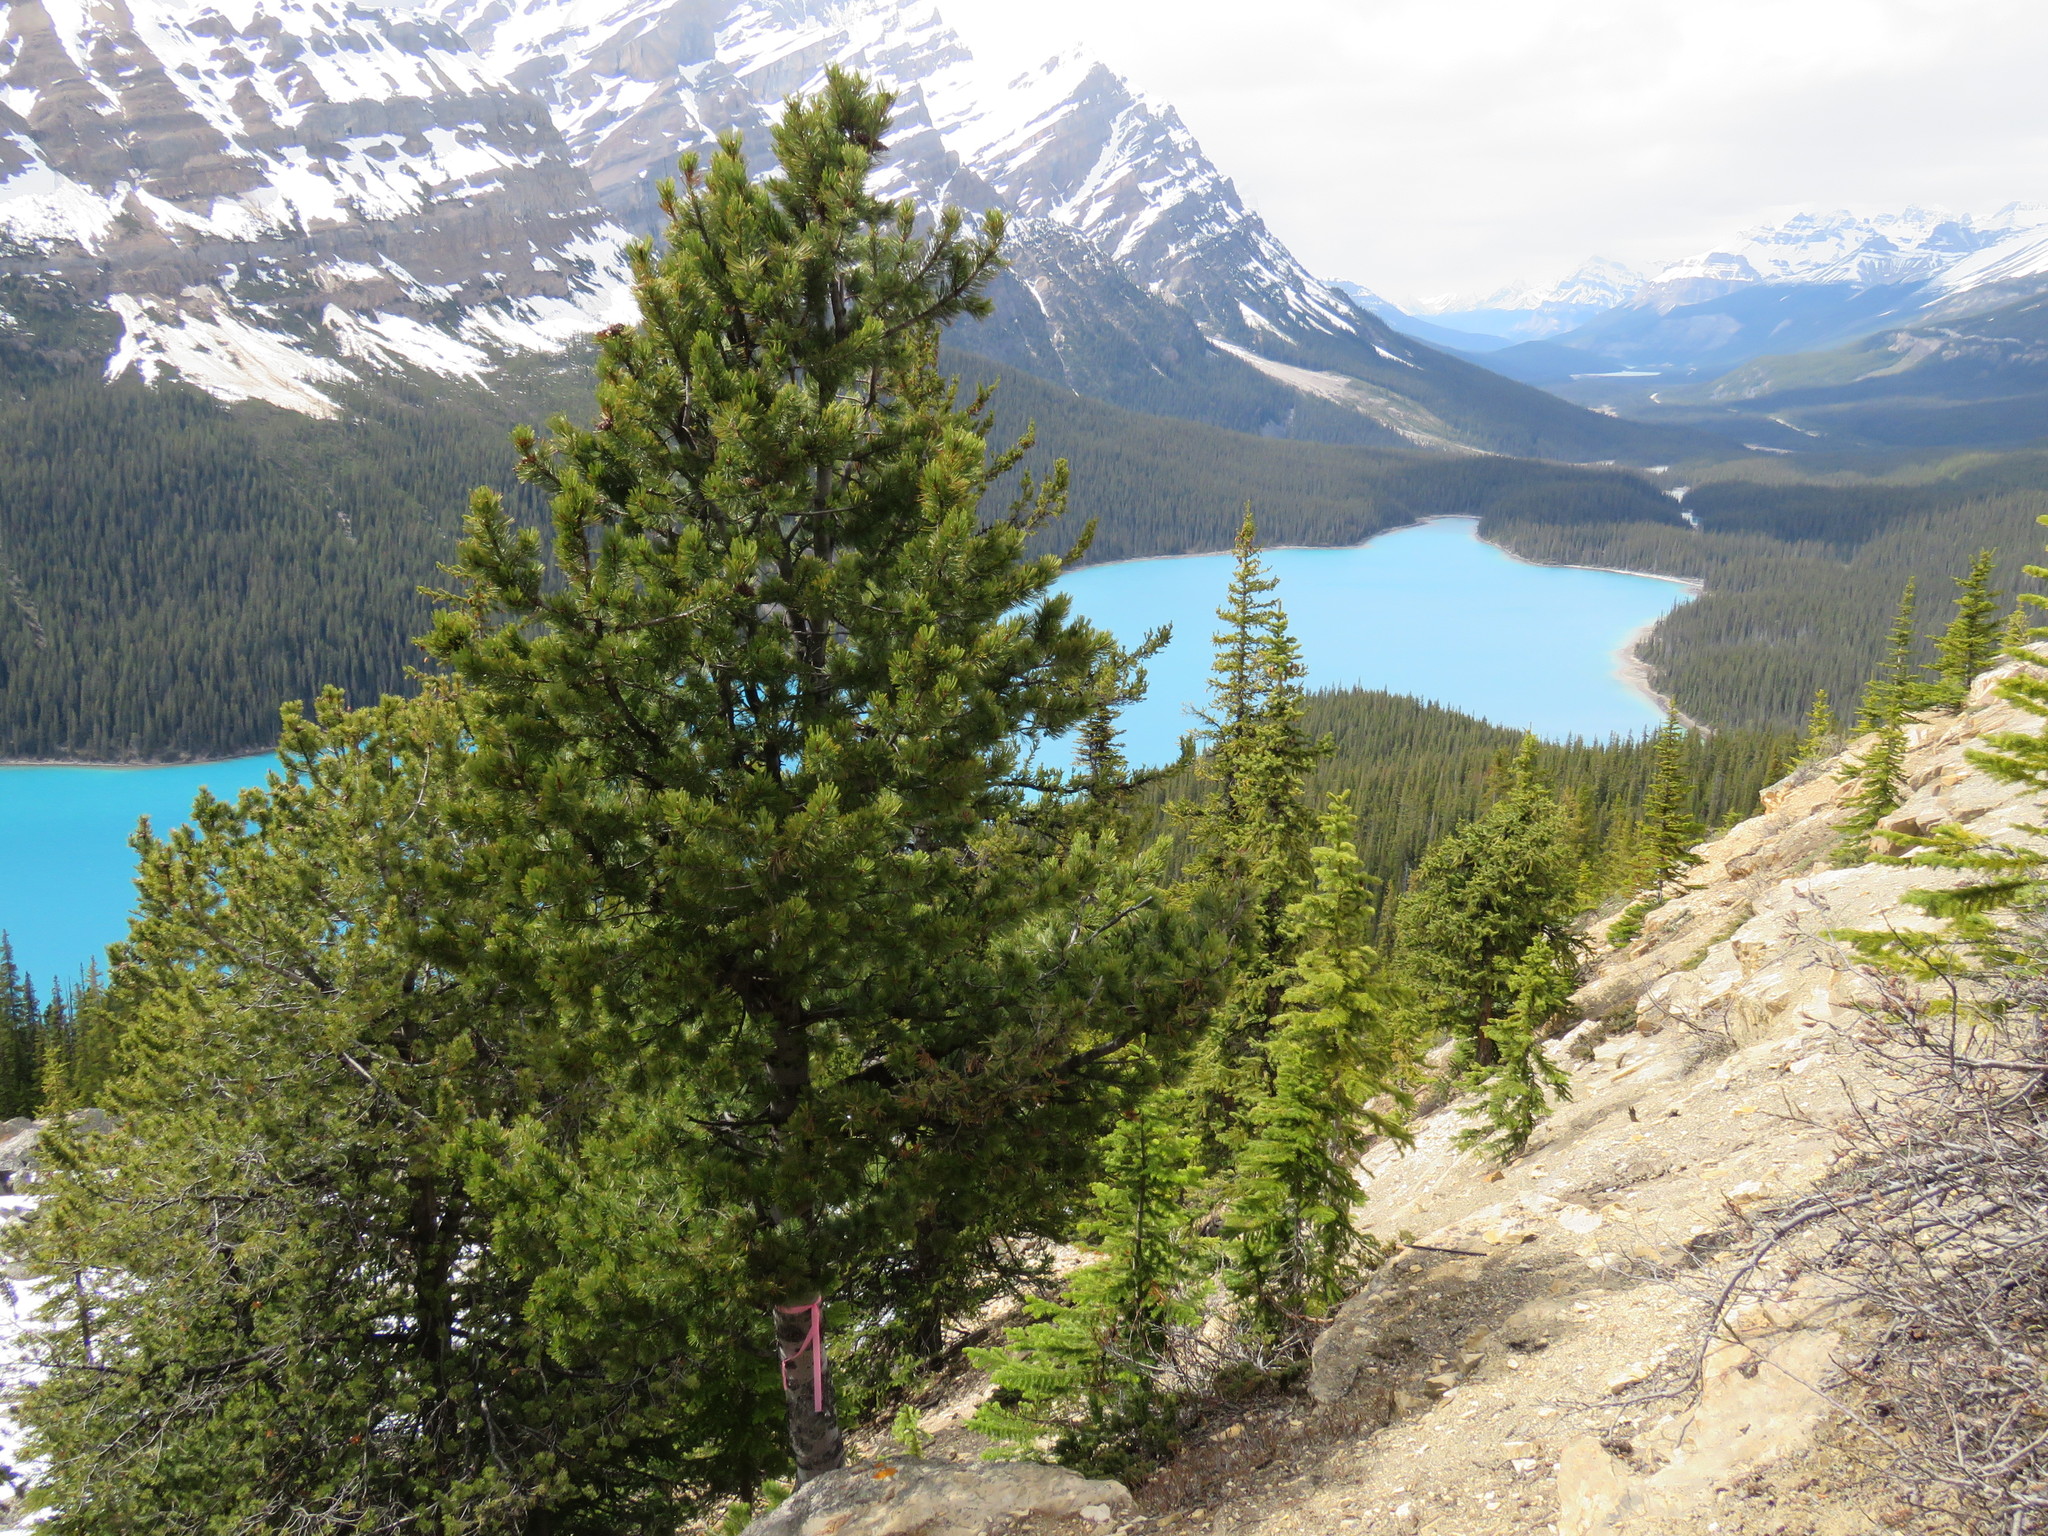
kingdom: Plantae
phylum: Tracheophyta
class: Pinopsida
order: Pinales
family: Pinaceae
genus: Pinus
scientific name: Pinus albicaulis
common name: Whitebark pine
